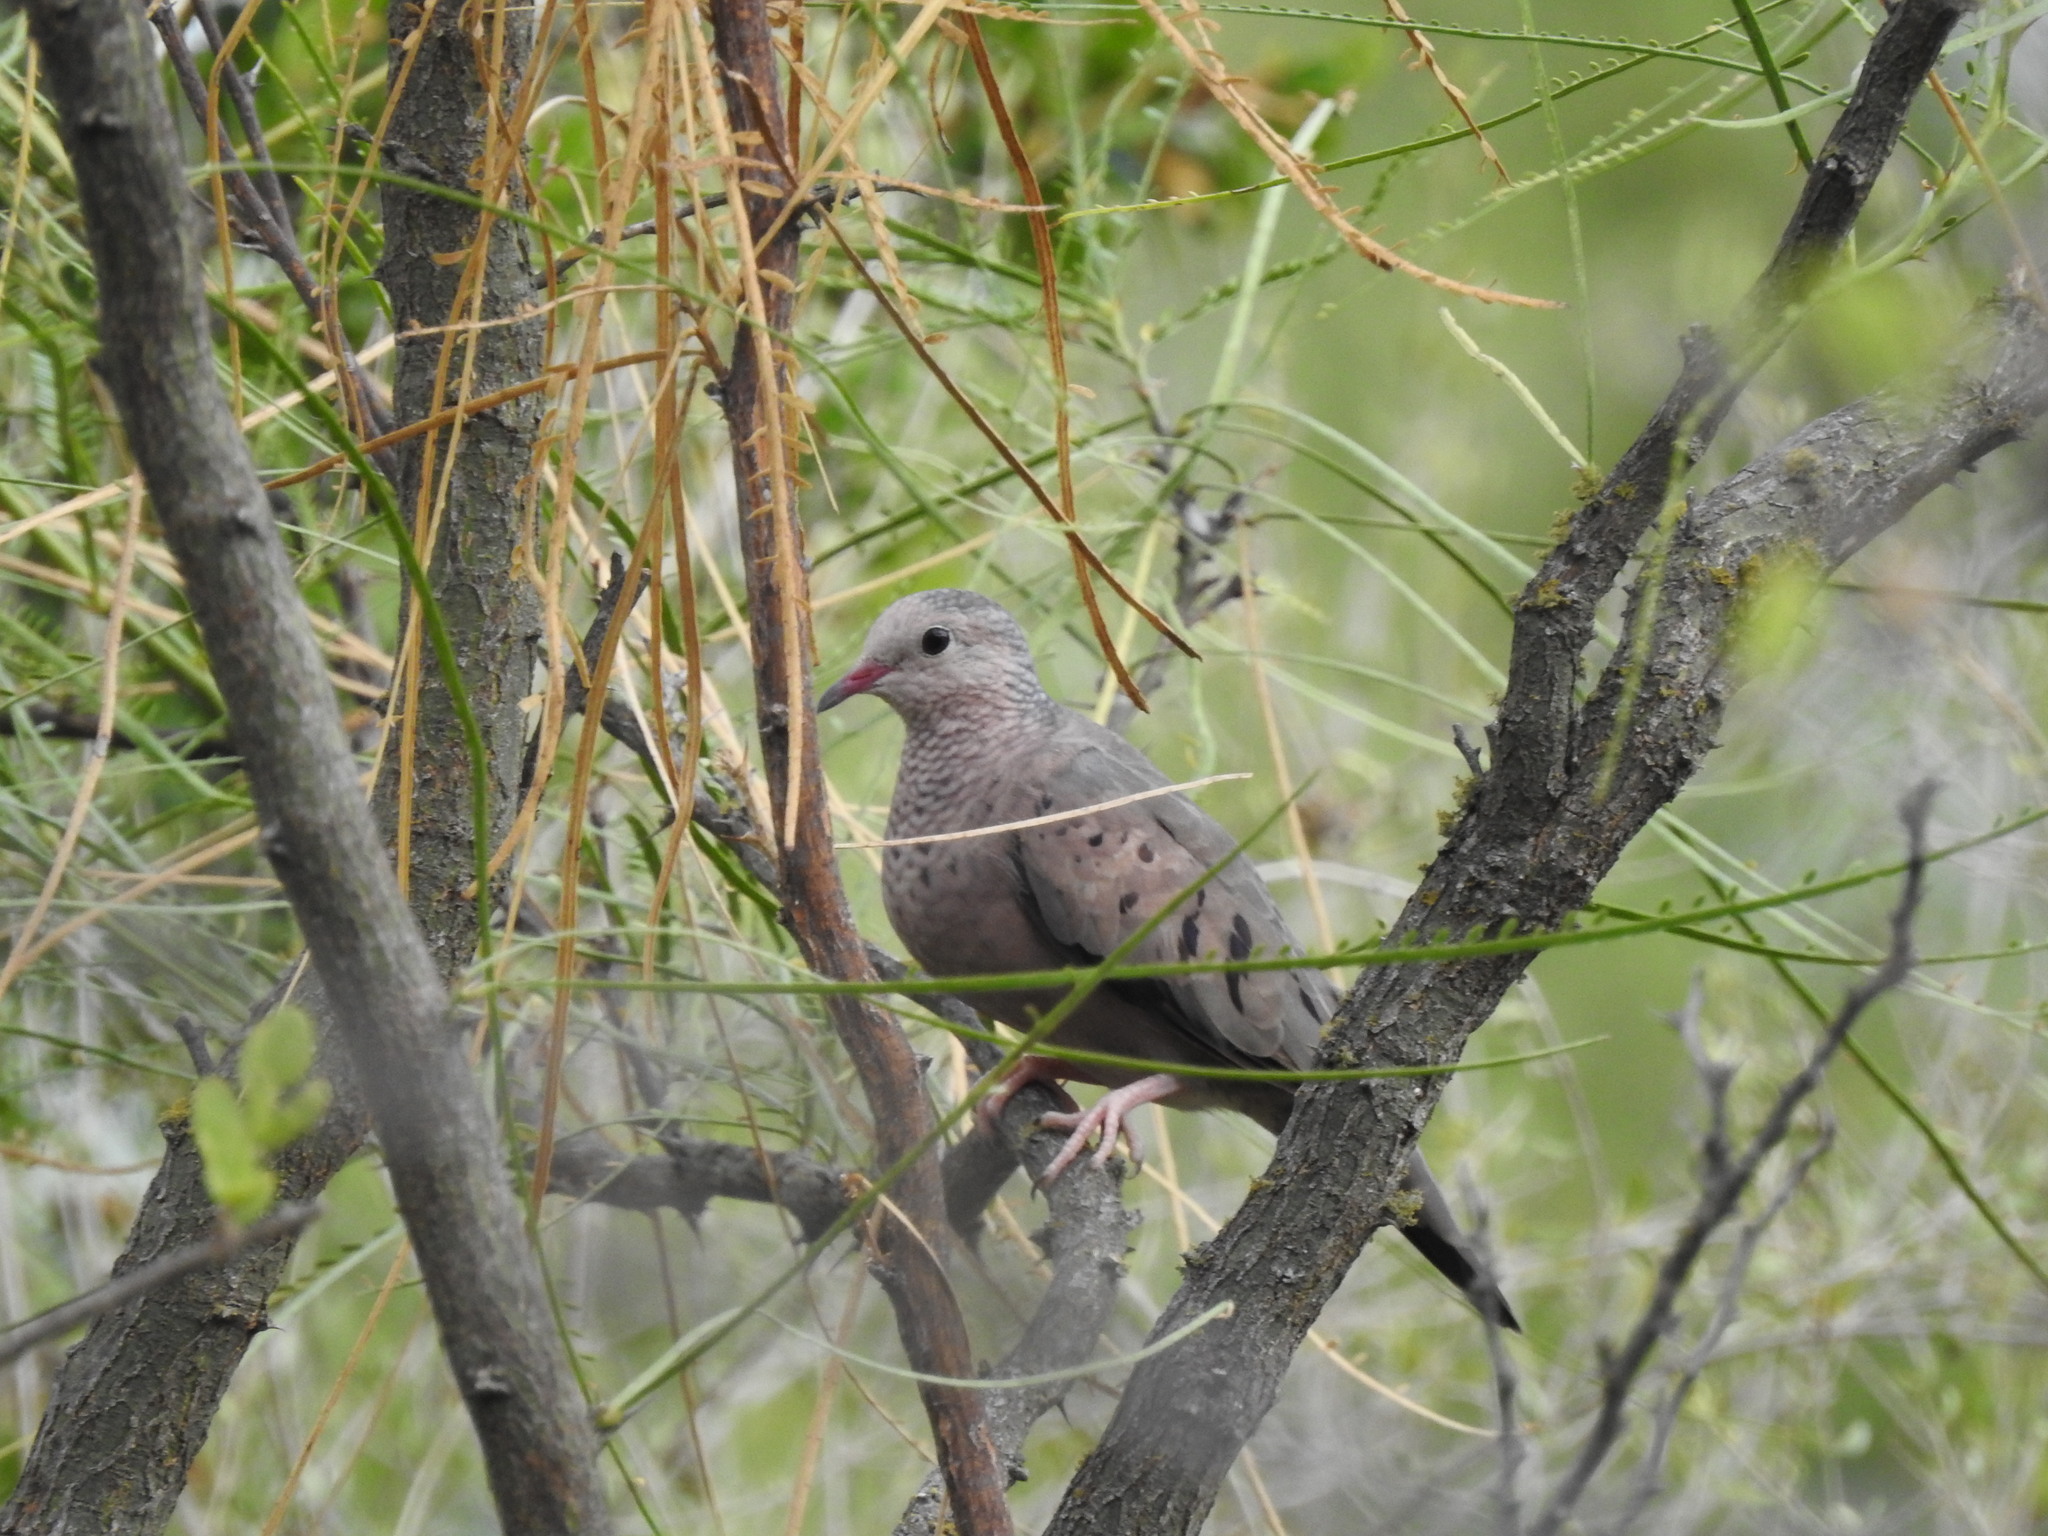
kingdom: Animalia
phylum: Chordata
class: Aves
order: Columbiformes
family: Columbidae
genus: Columbina
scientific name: Columbina passerina
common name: Common ground-dove
